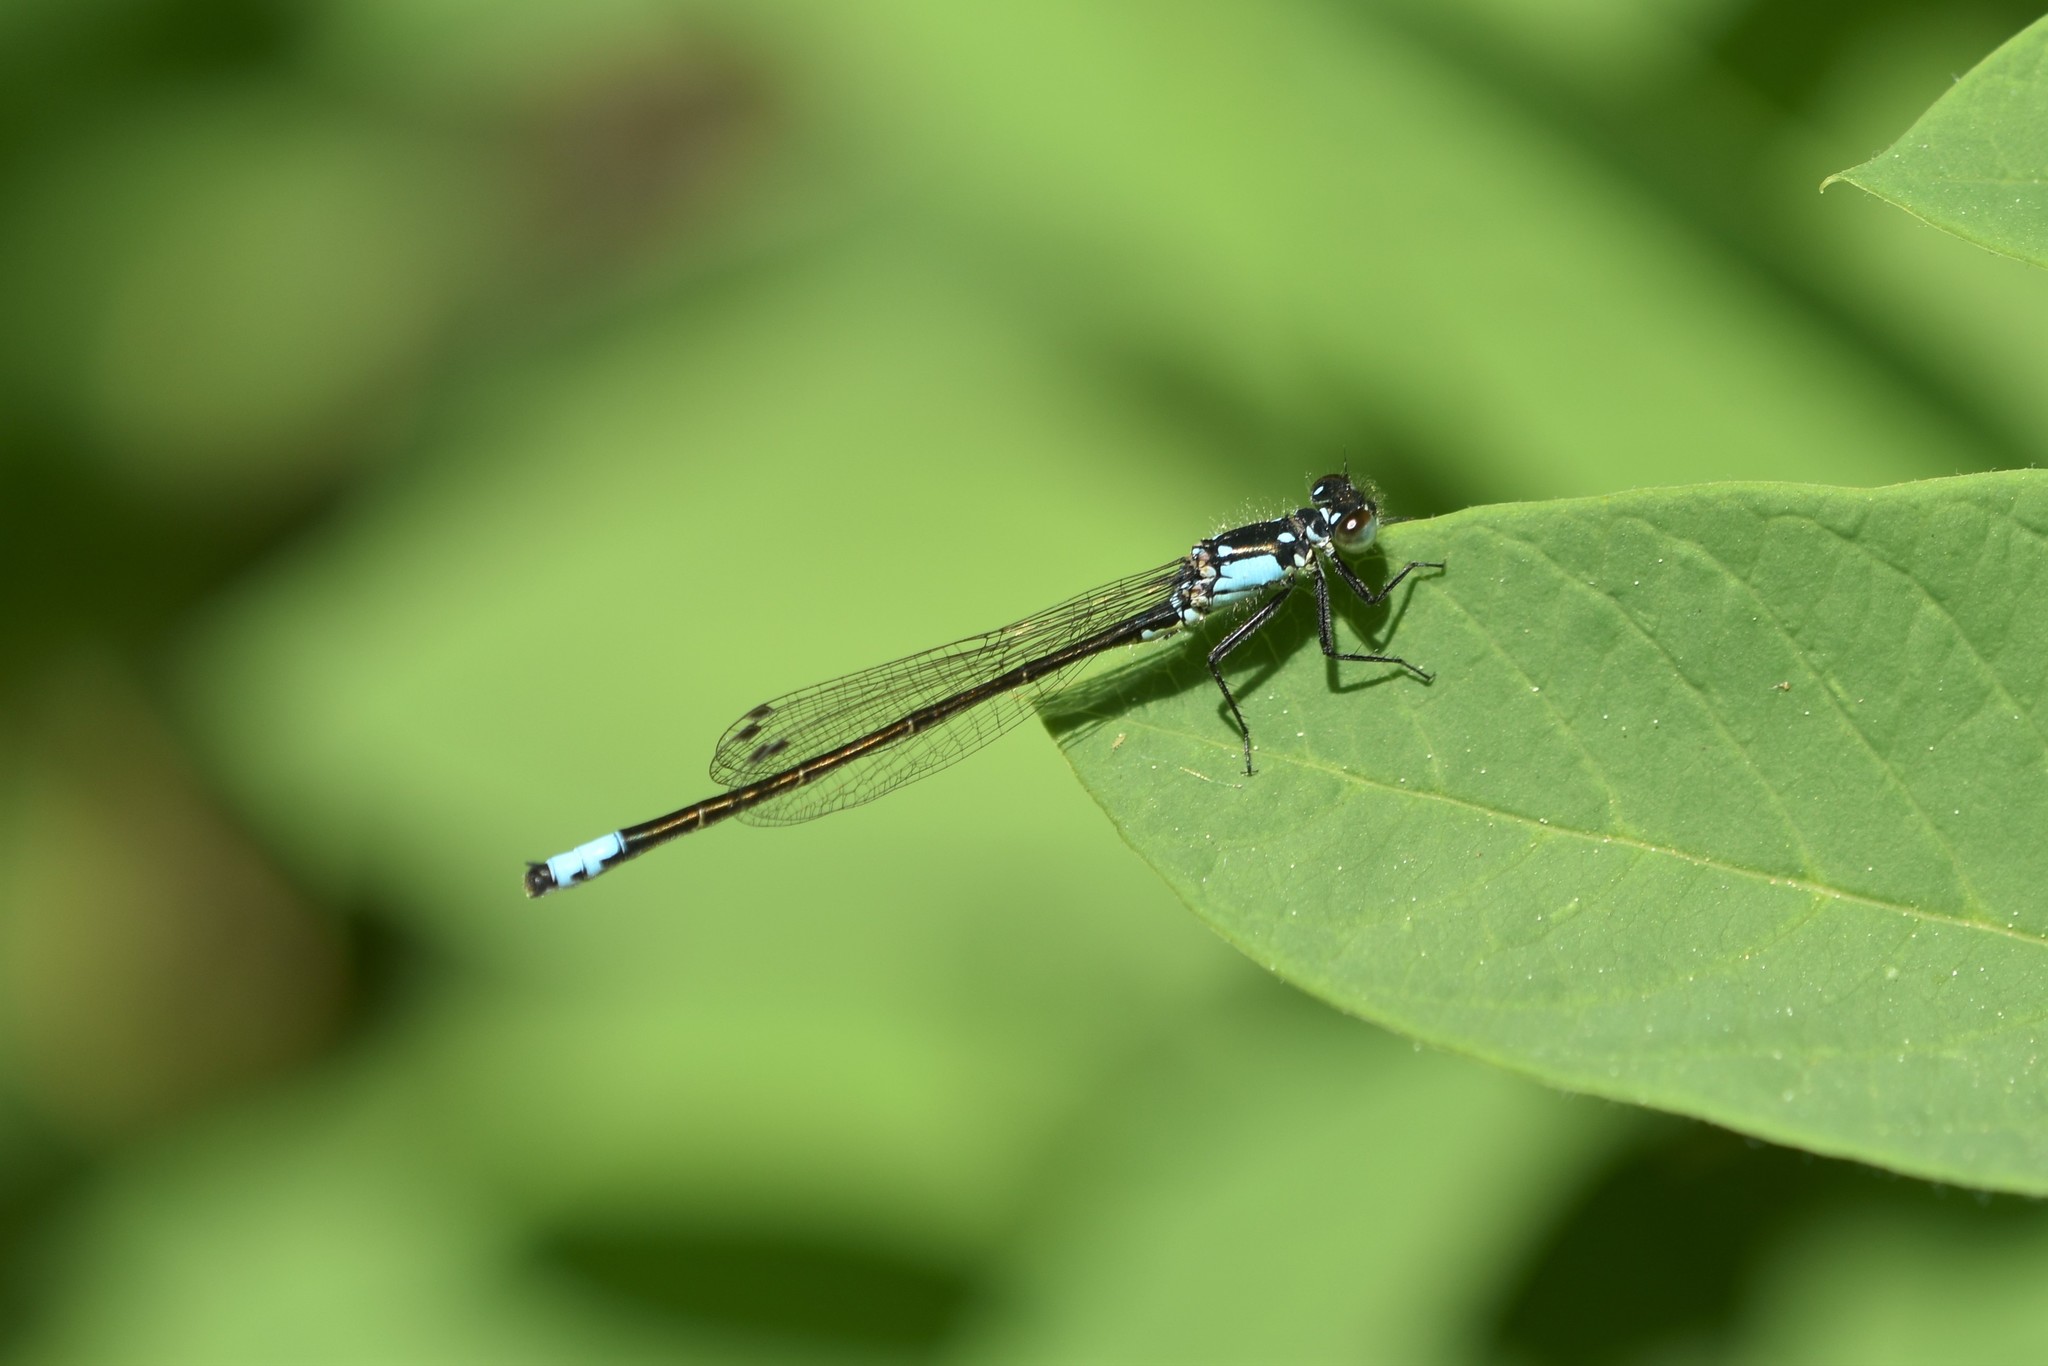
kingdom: Animalia
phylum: Arthropoda
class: Insecta
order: Odonata
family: Coenagrionidae
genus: Ischnura
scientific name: Ischnura cervula
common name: Pacific forktail
